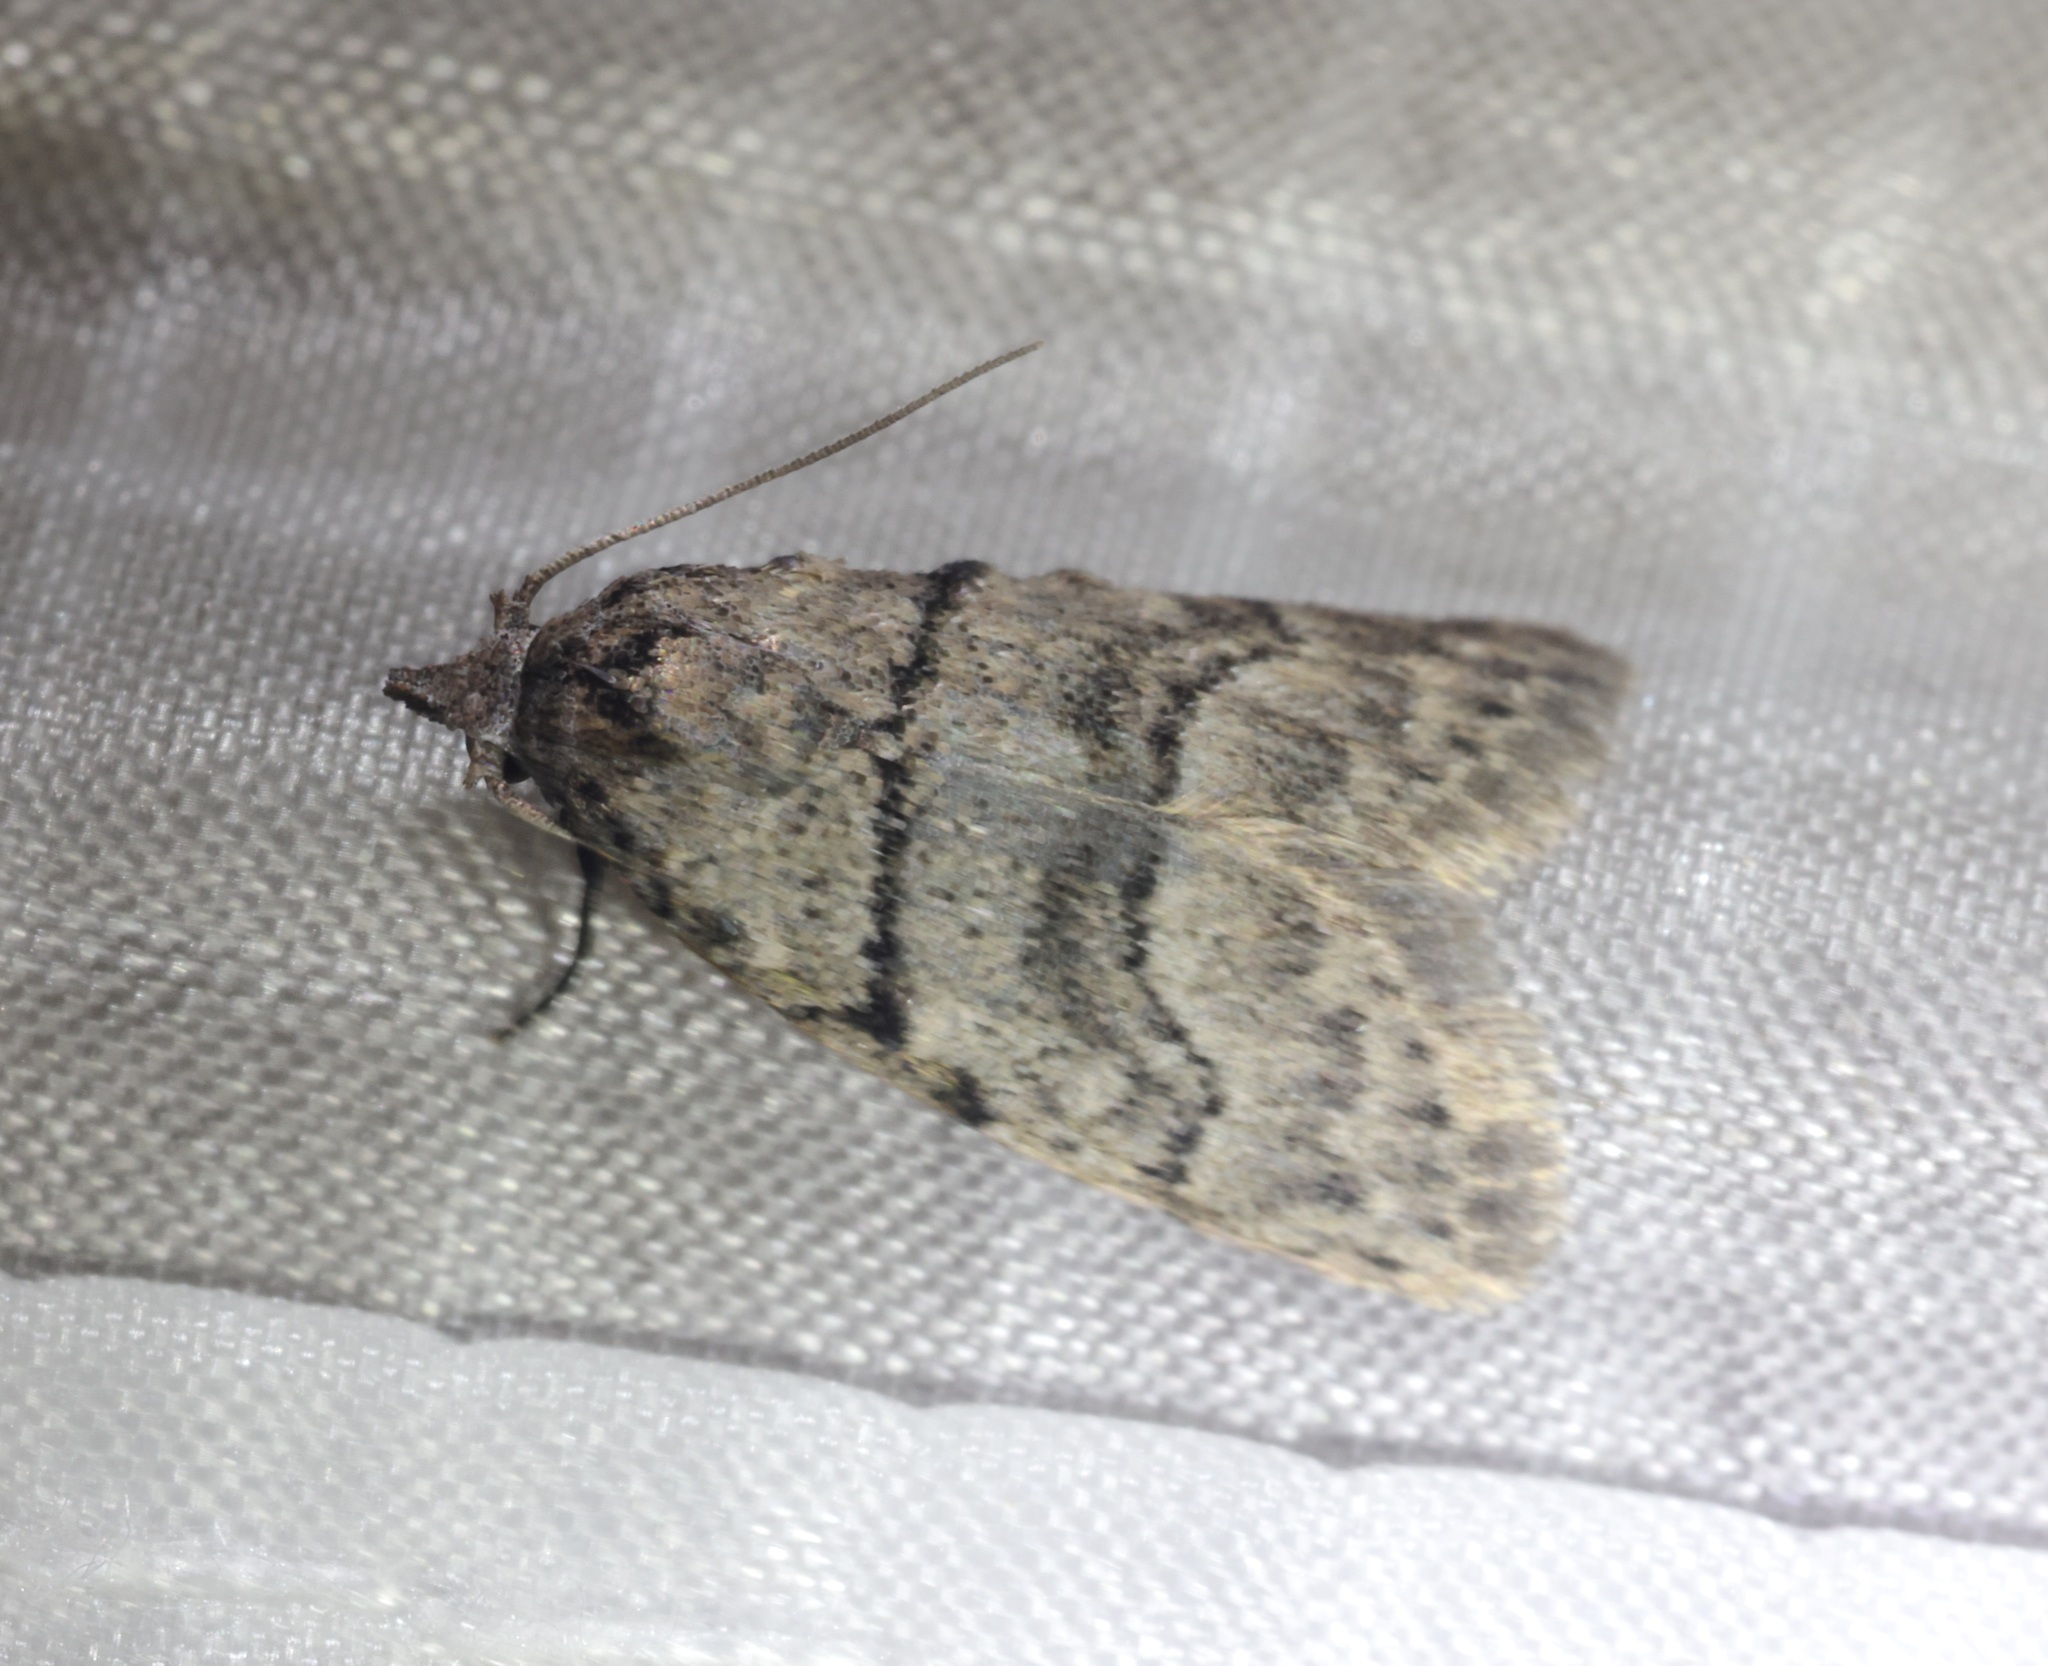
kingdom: Animalia
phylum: Arthropoda
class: Insecta
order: Lepidoptera
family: Nolidae
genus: Inouenola
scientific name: Inouenola pallescens
